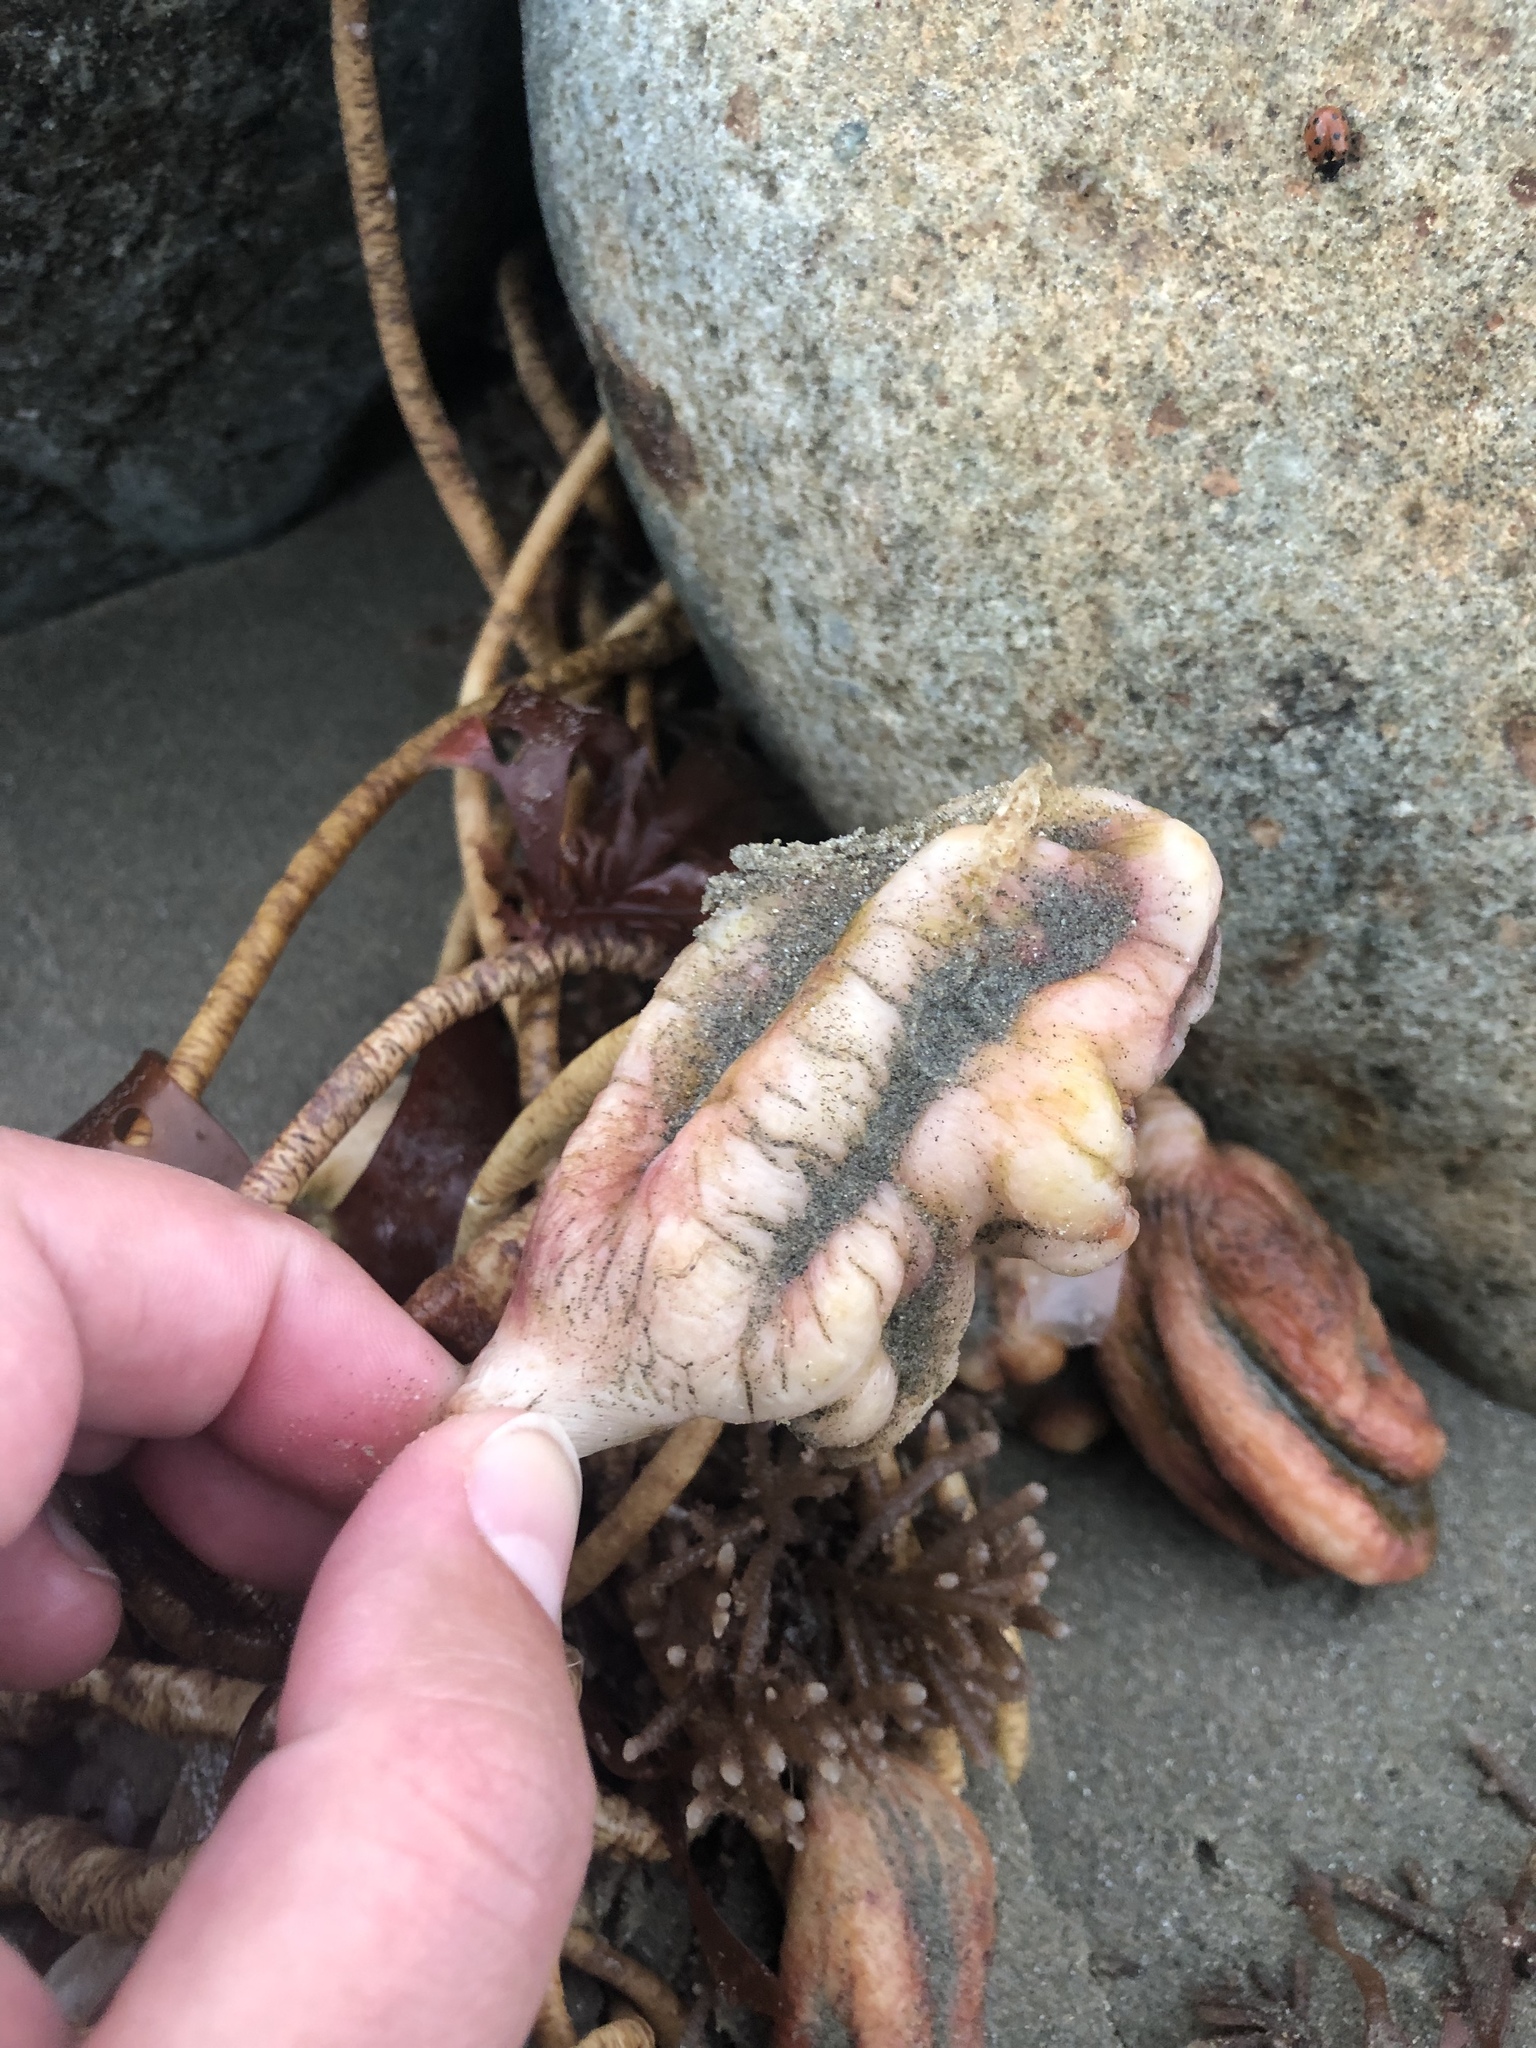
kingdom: Animalia
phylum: Chordata
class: Ascidiacea
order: Stolidobranchia
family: Pyuridae
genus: Pyura
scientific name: Pyura pachydermatina
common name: Sea tulip
